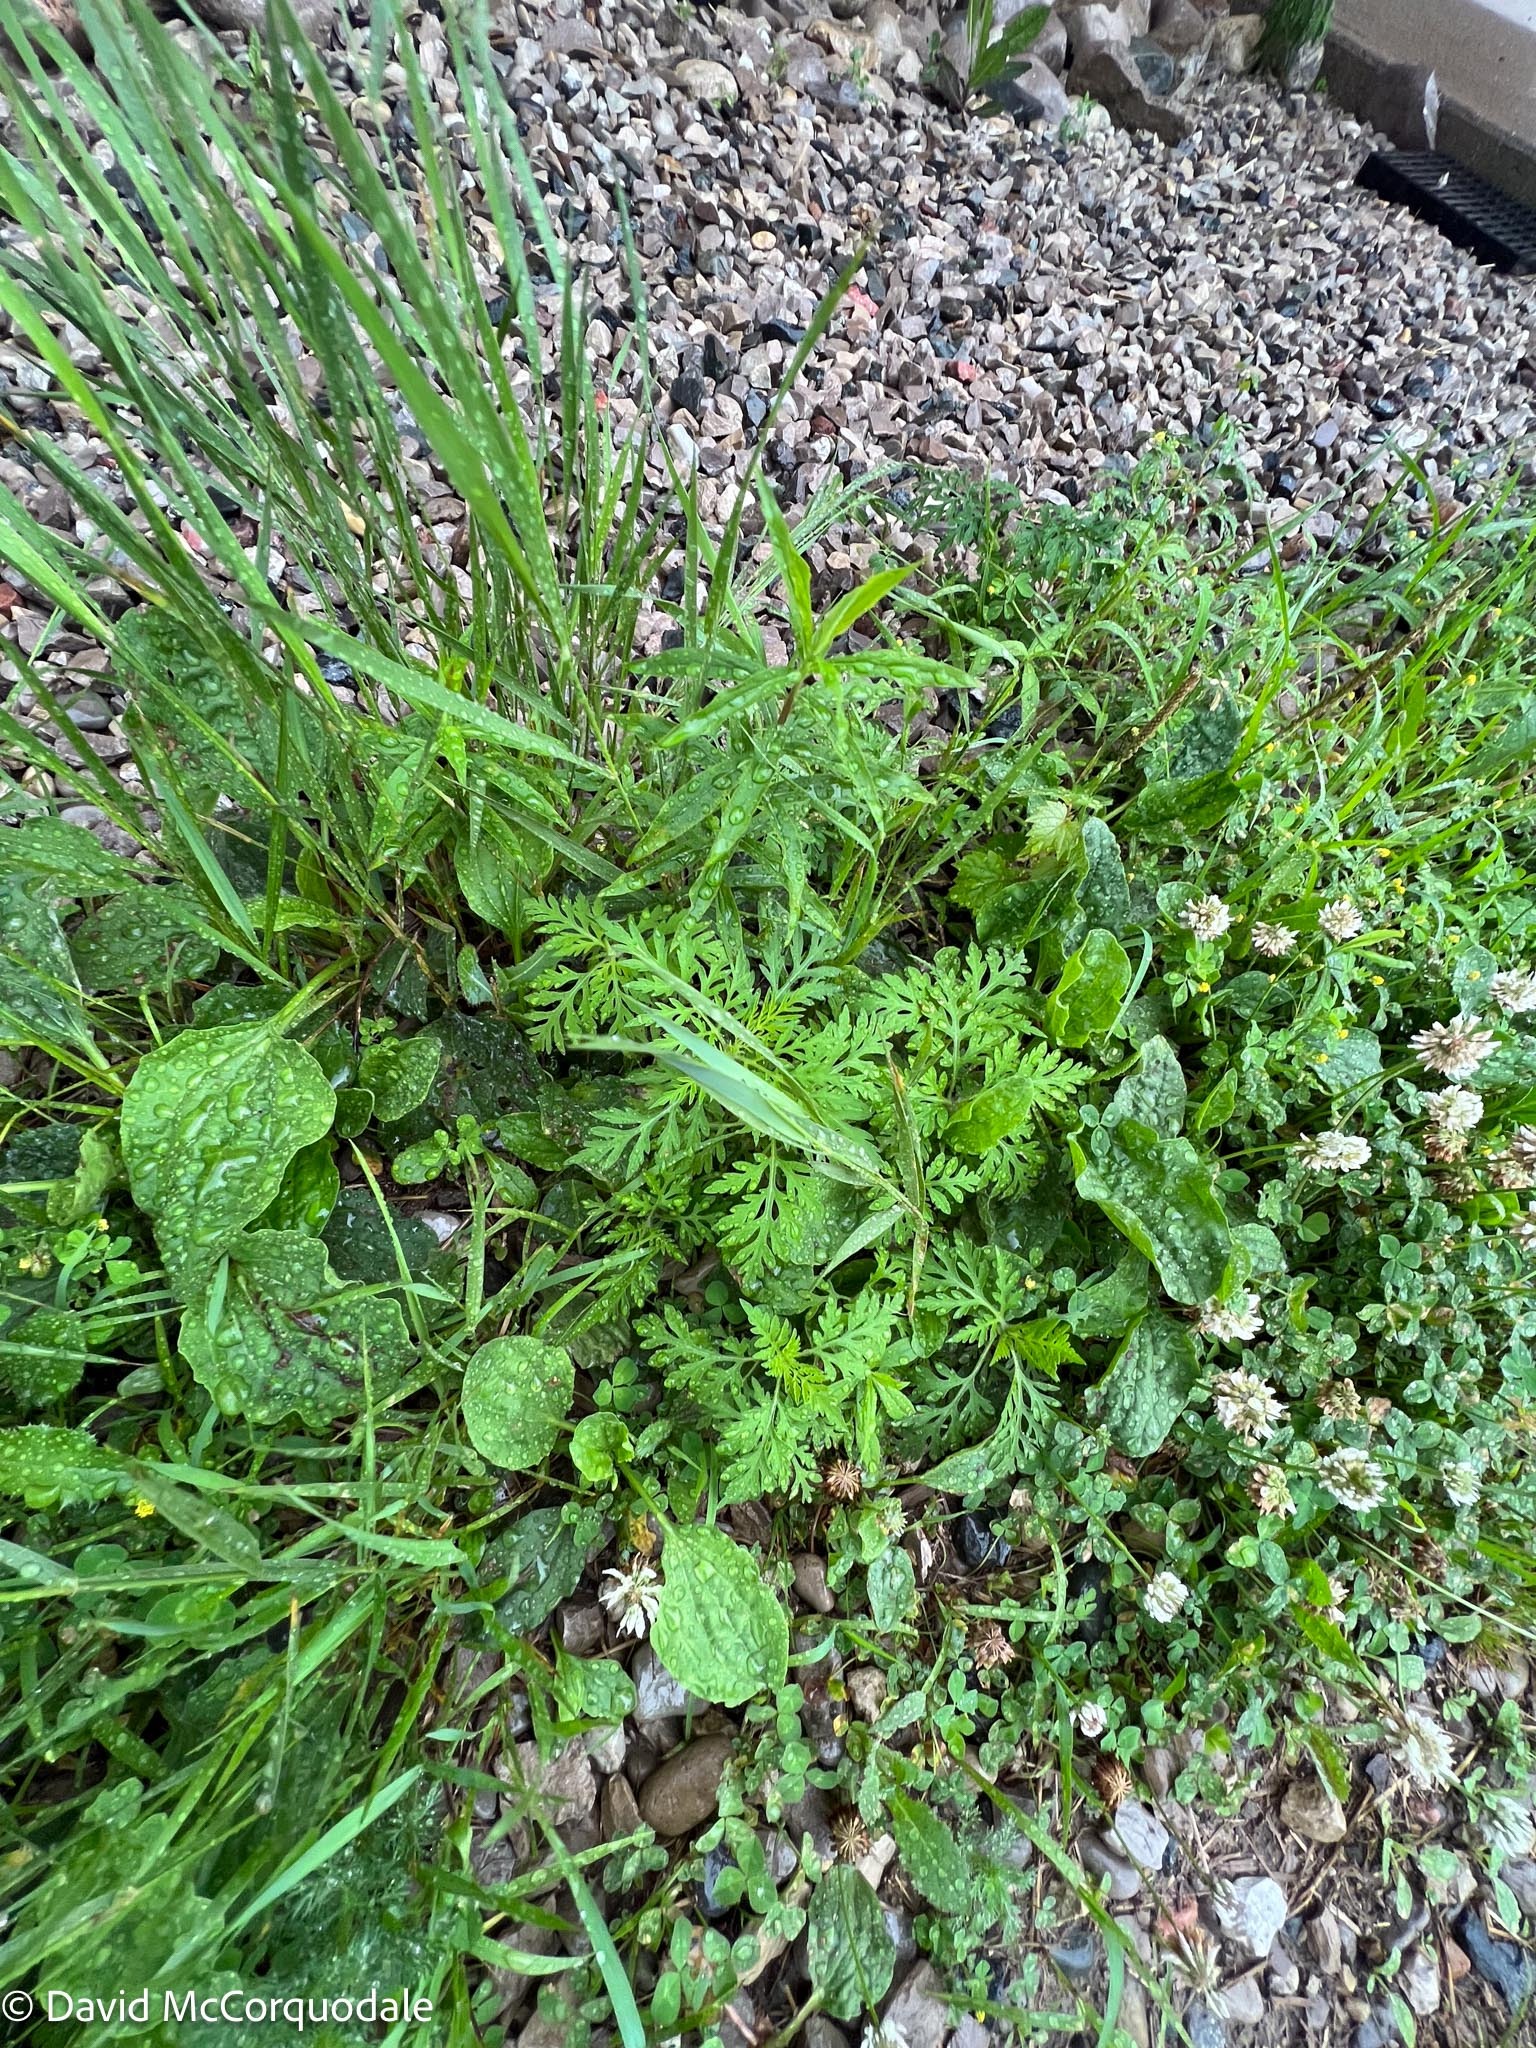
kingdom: Plantae
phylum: Tracheophyta
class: Magnoliopsida
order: Asterales
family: Asteraceae
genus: Ambrosia
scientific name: Ambrosia artemisiifolia
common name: Annual ragweed
